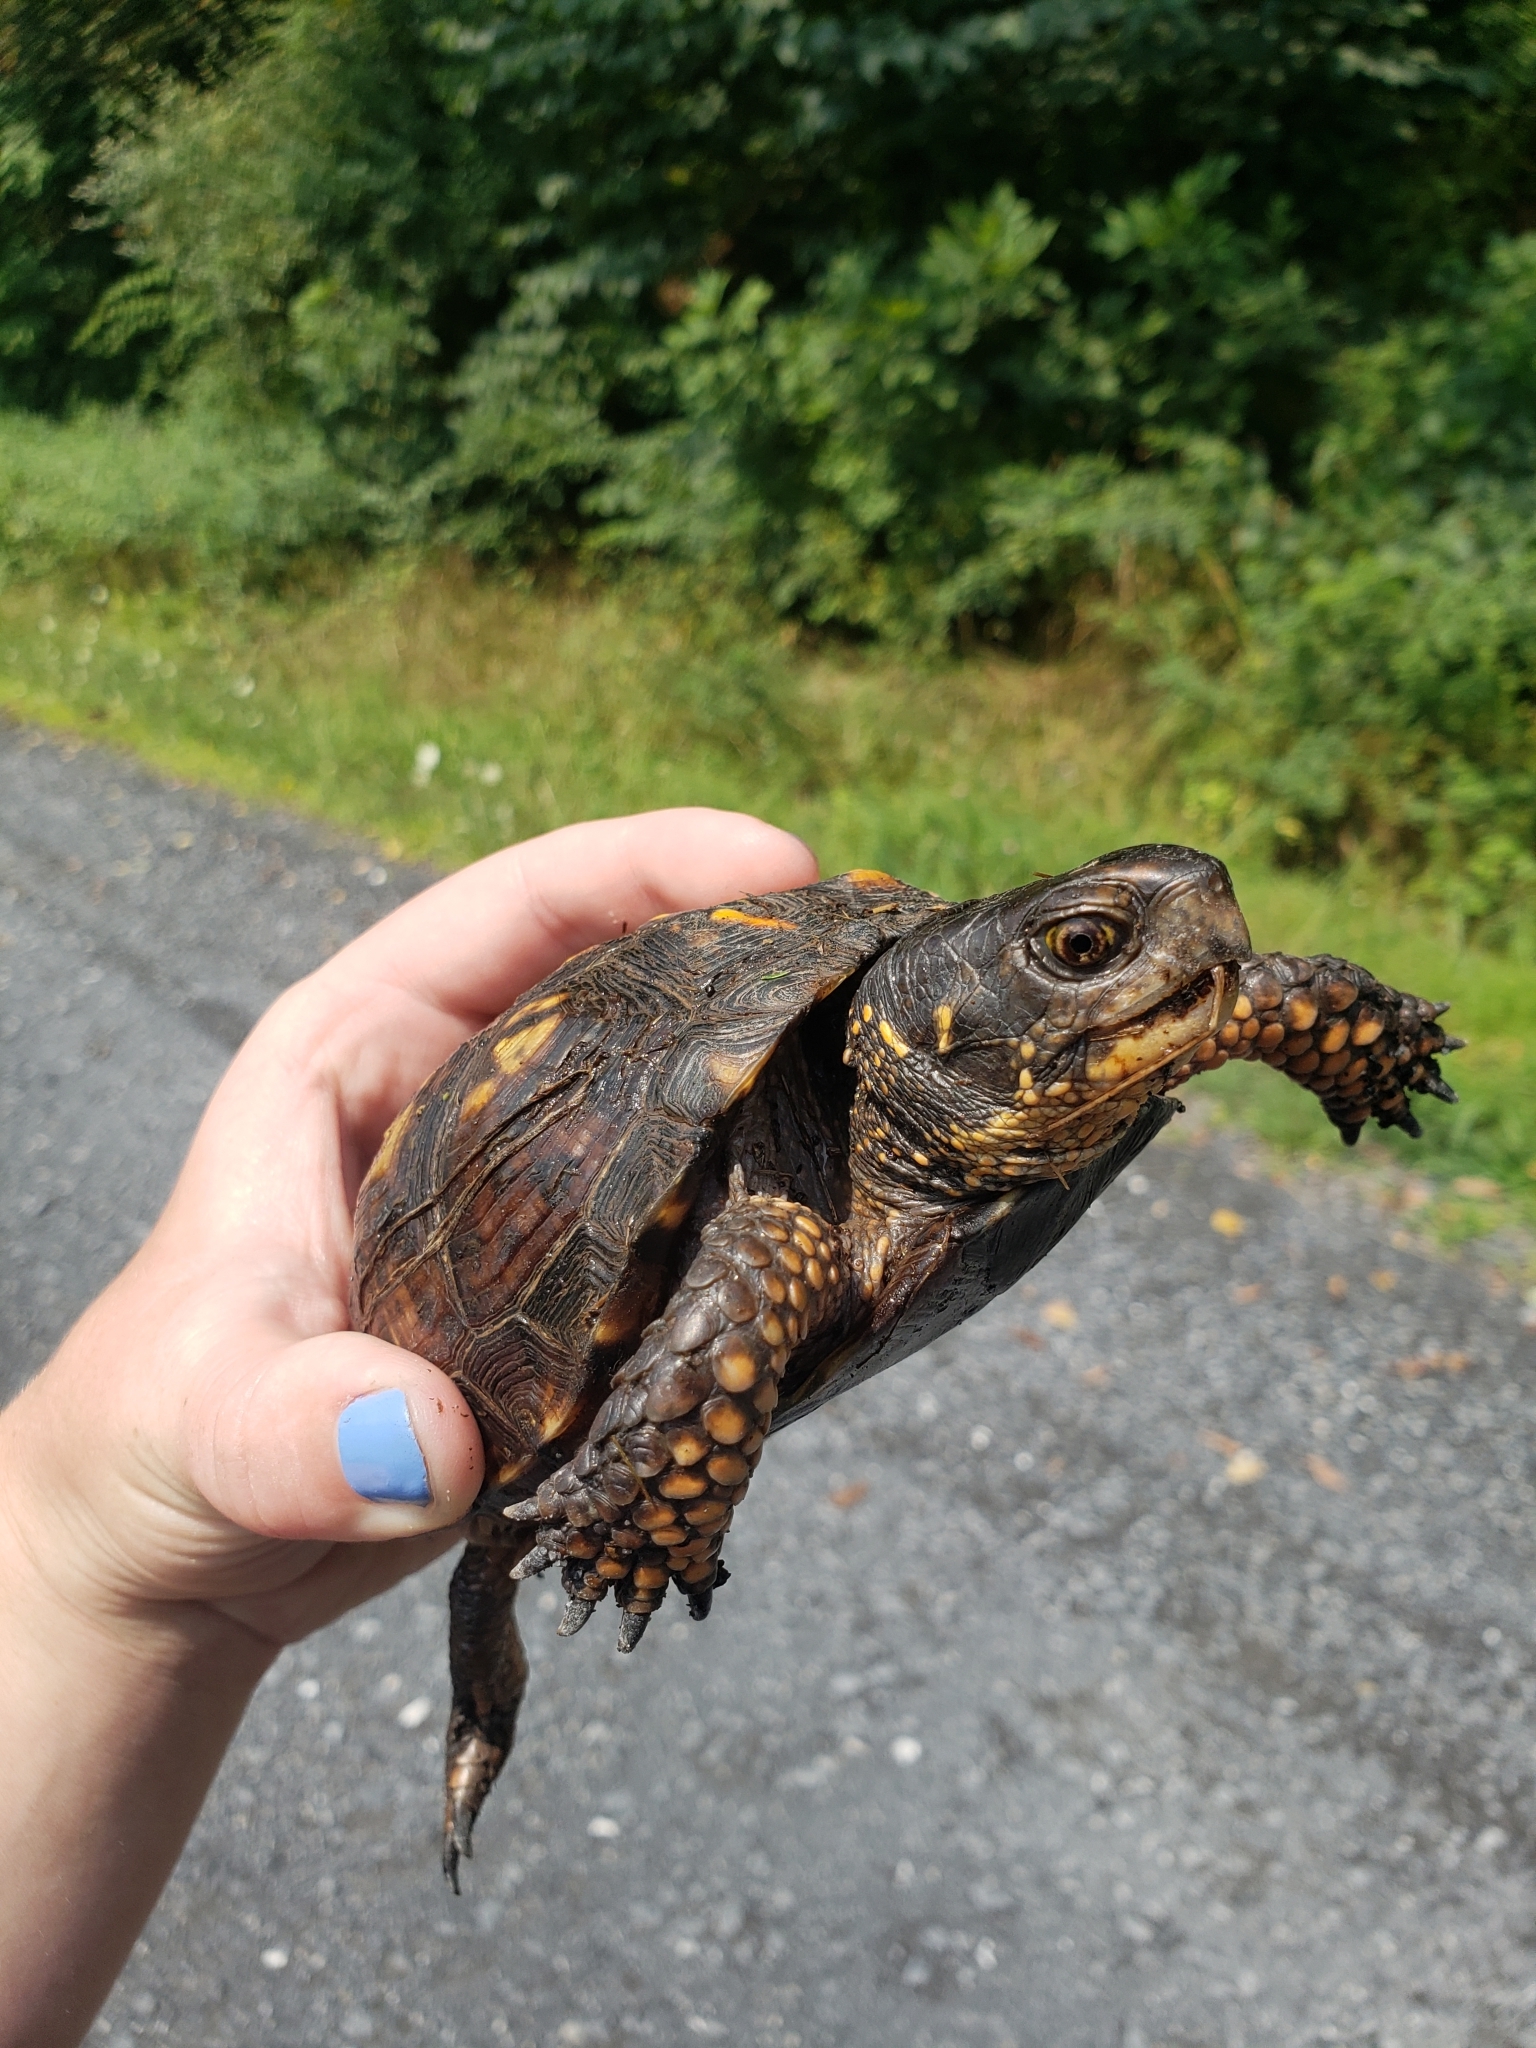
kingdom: Animalia
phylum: Chordata
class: Testudines
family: Emydidae
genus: Terrapene
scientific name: Terrapene carolina
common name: Common box turtle
